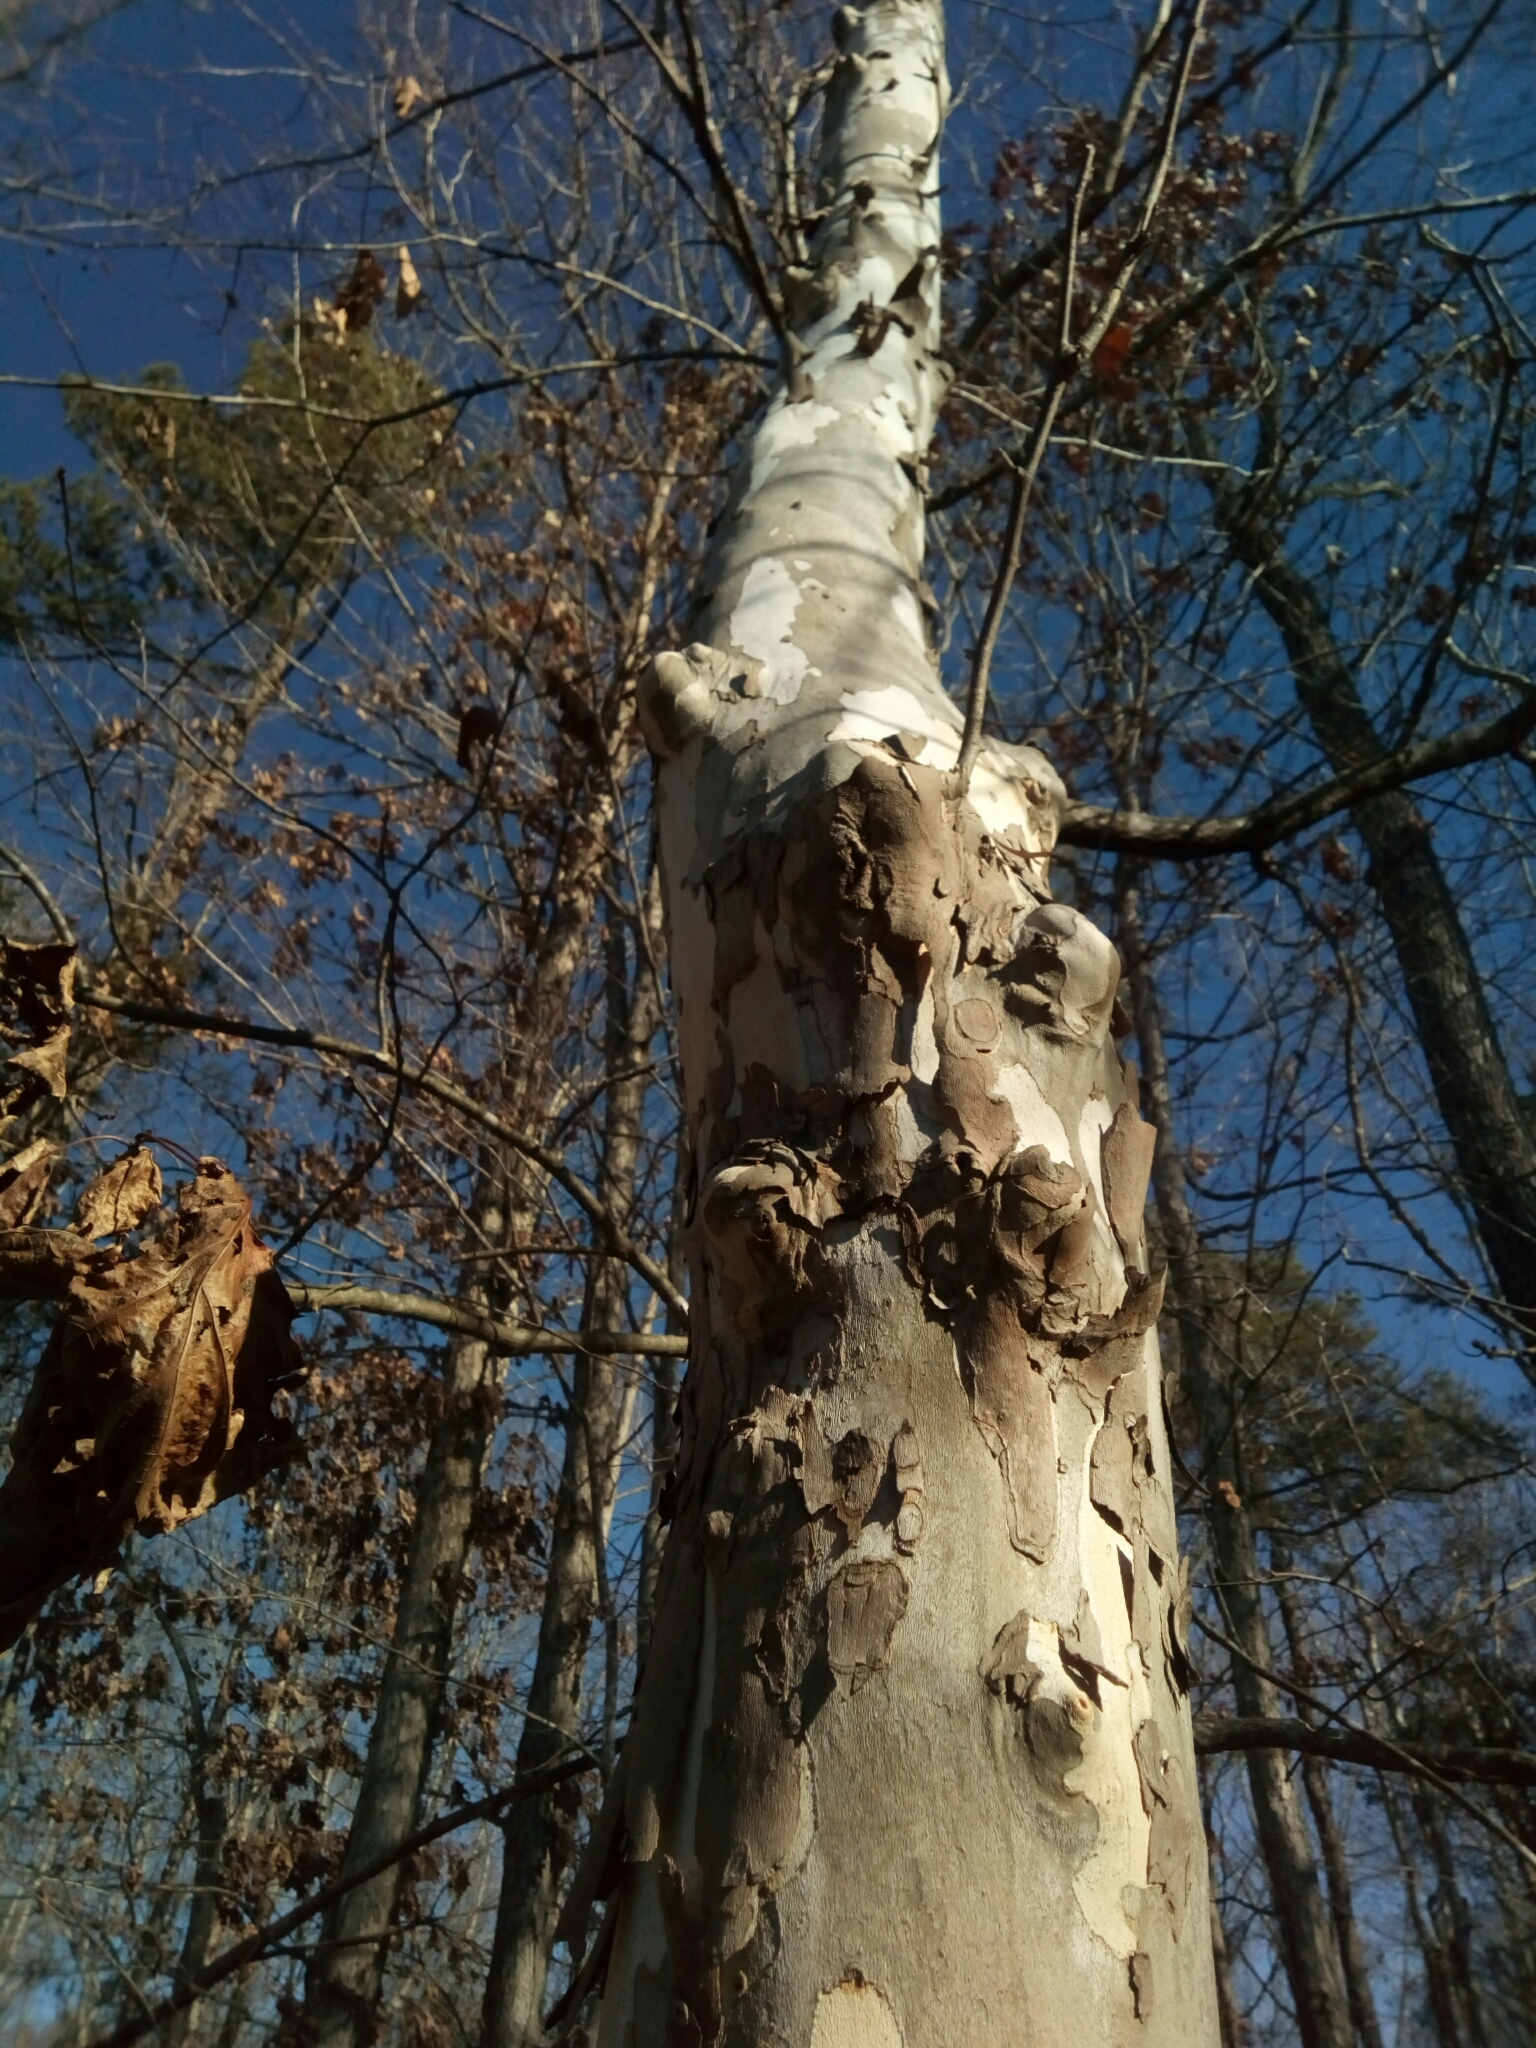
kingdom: Plantae
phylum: Tracheophyta
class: Magnoliopsida
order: Proteales
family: Platanaceae
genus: Platanus
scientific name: Platanus occidentalis
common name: American sycamore
